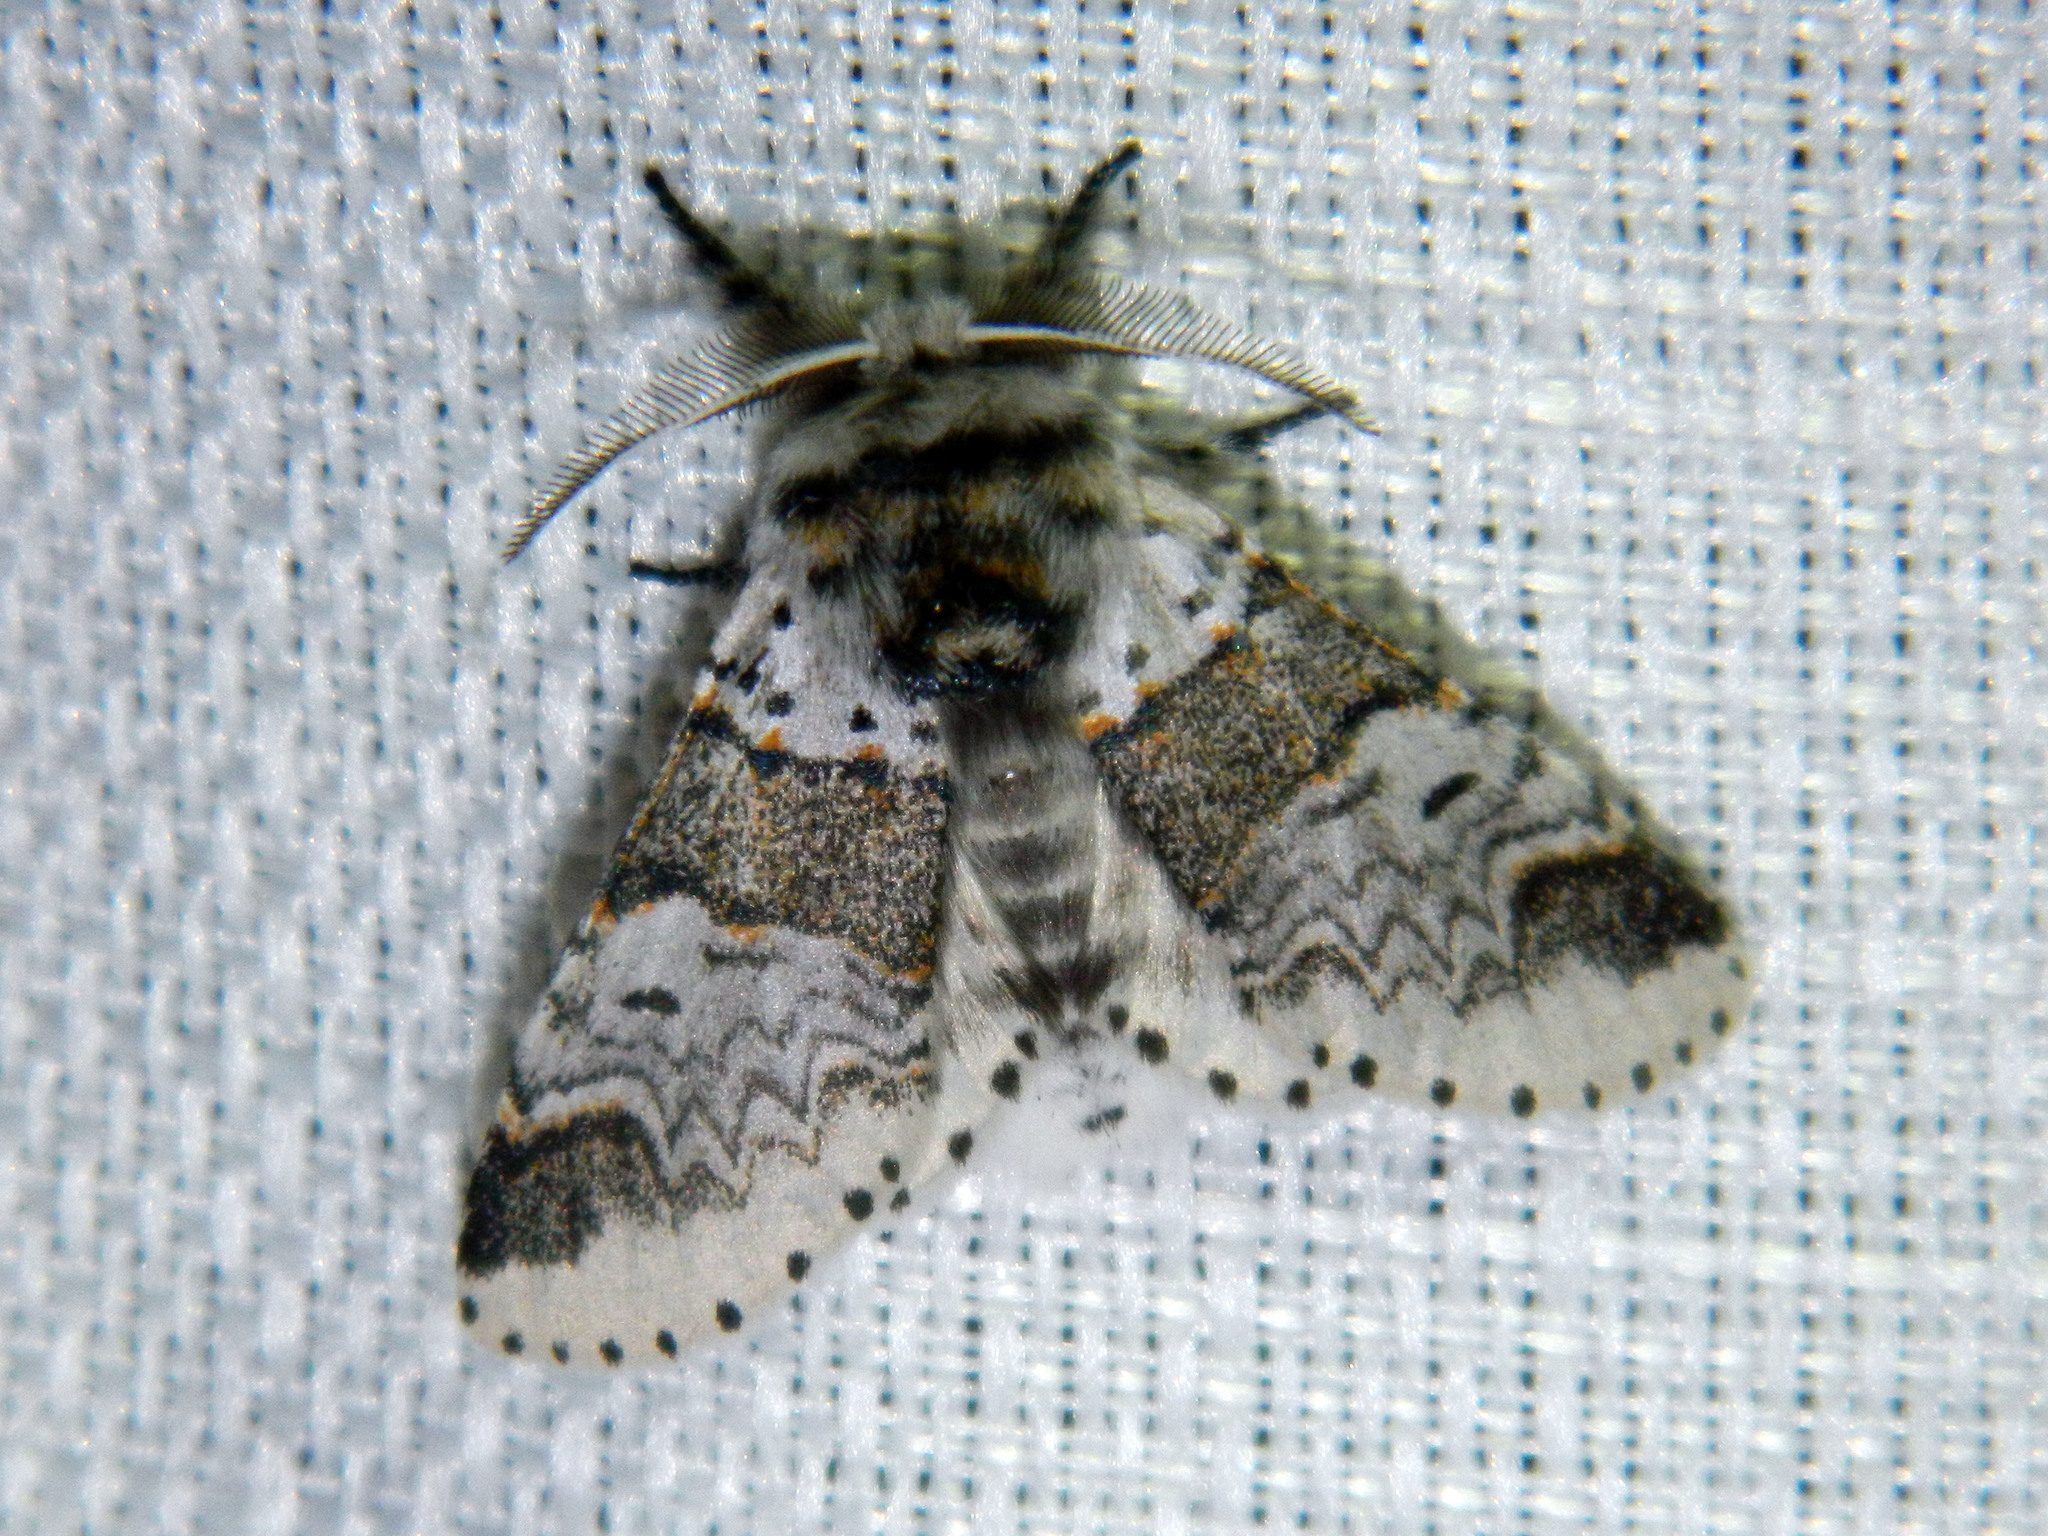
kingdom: Animalia
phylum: Arthropoda
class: Insecta
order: Lepidoptera
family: Notodontidae
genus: Furcula
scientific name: Furcula occidentalis
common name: Western furcula moth
